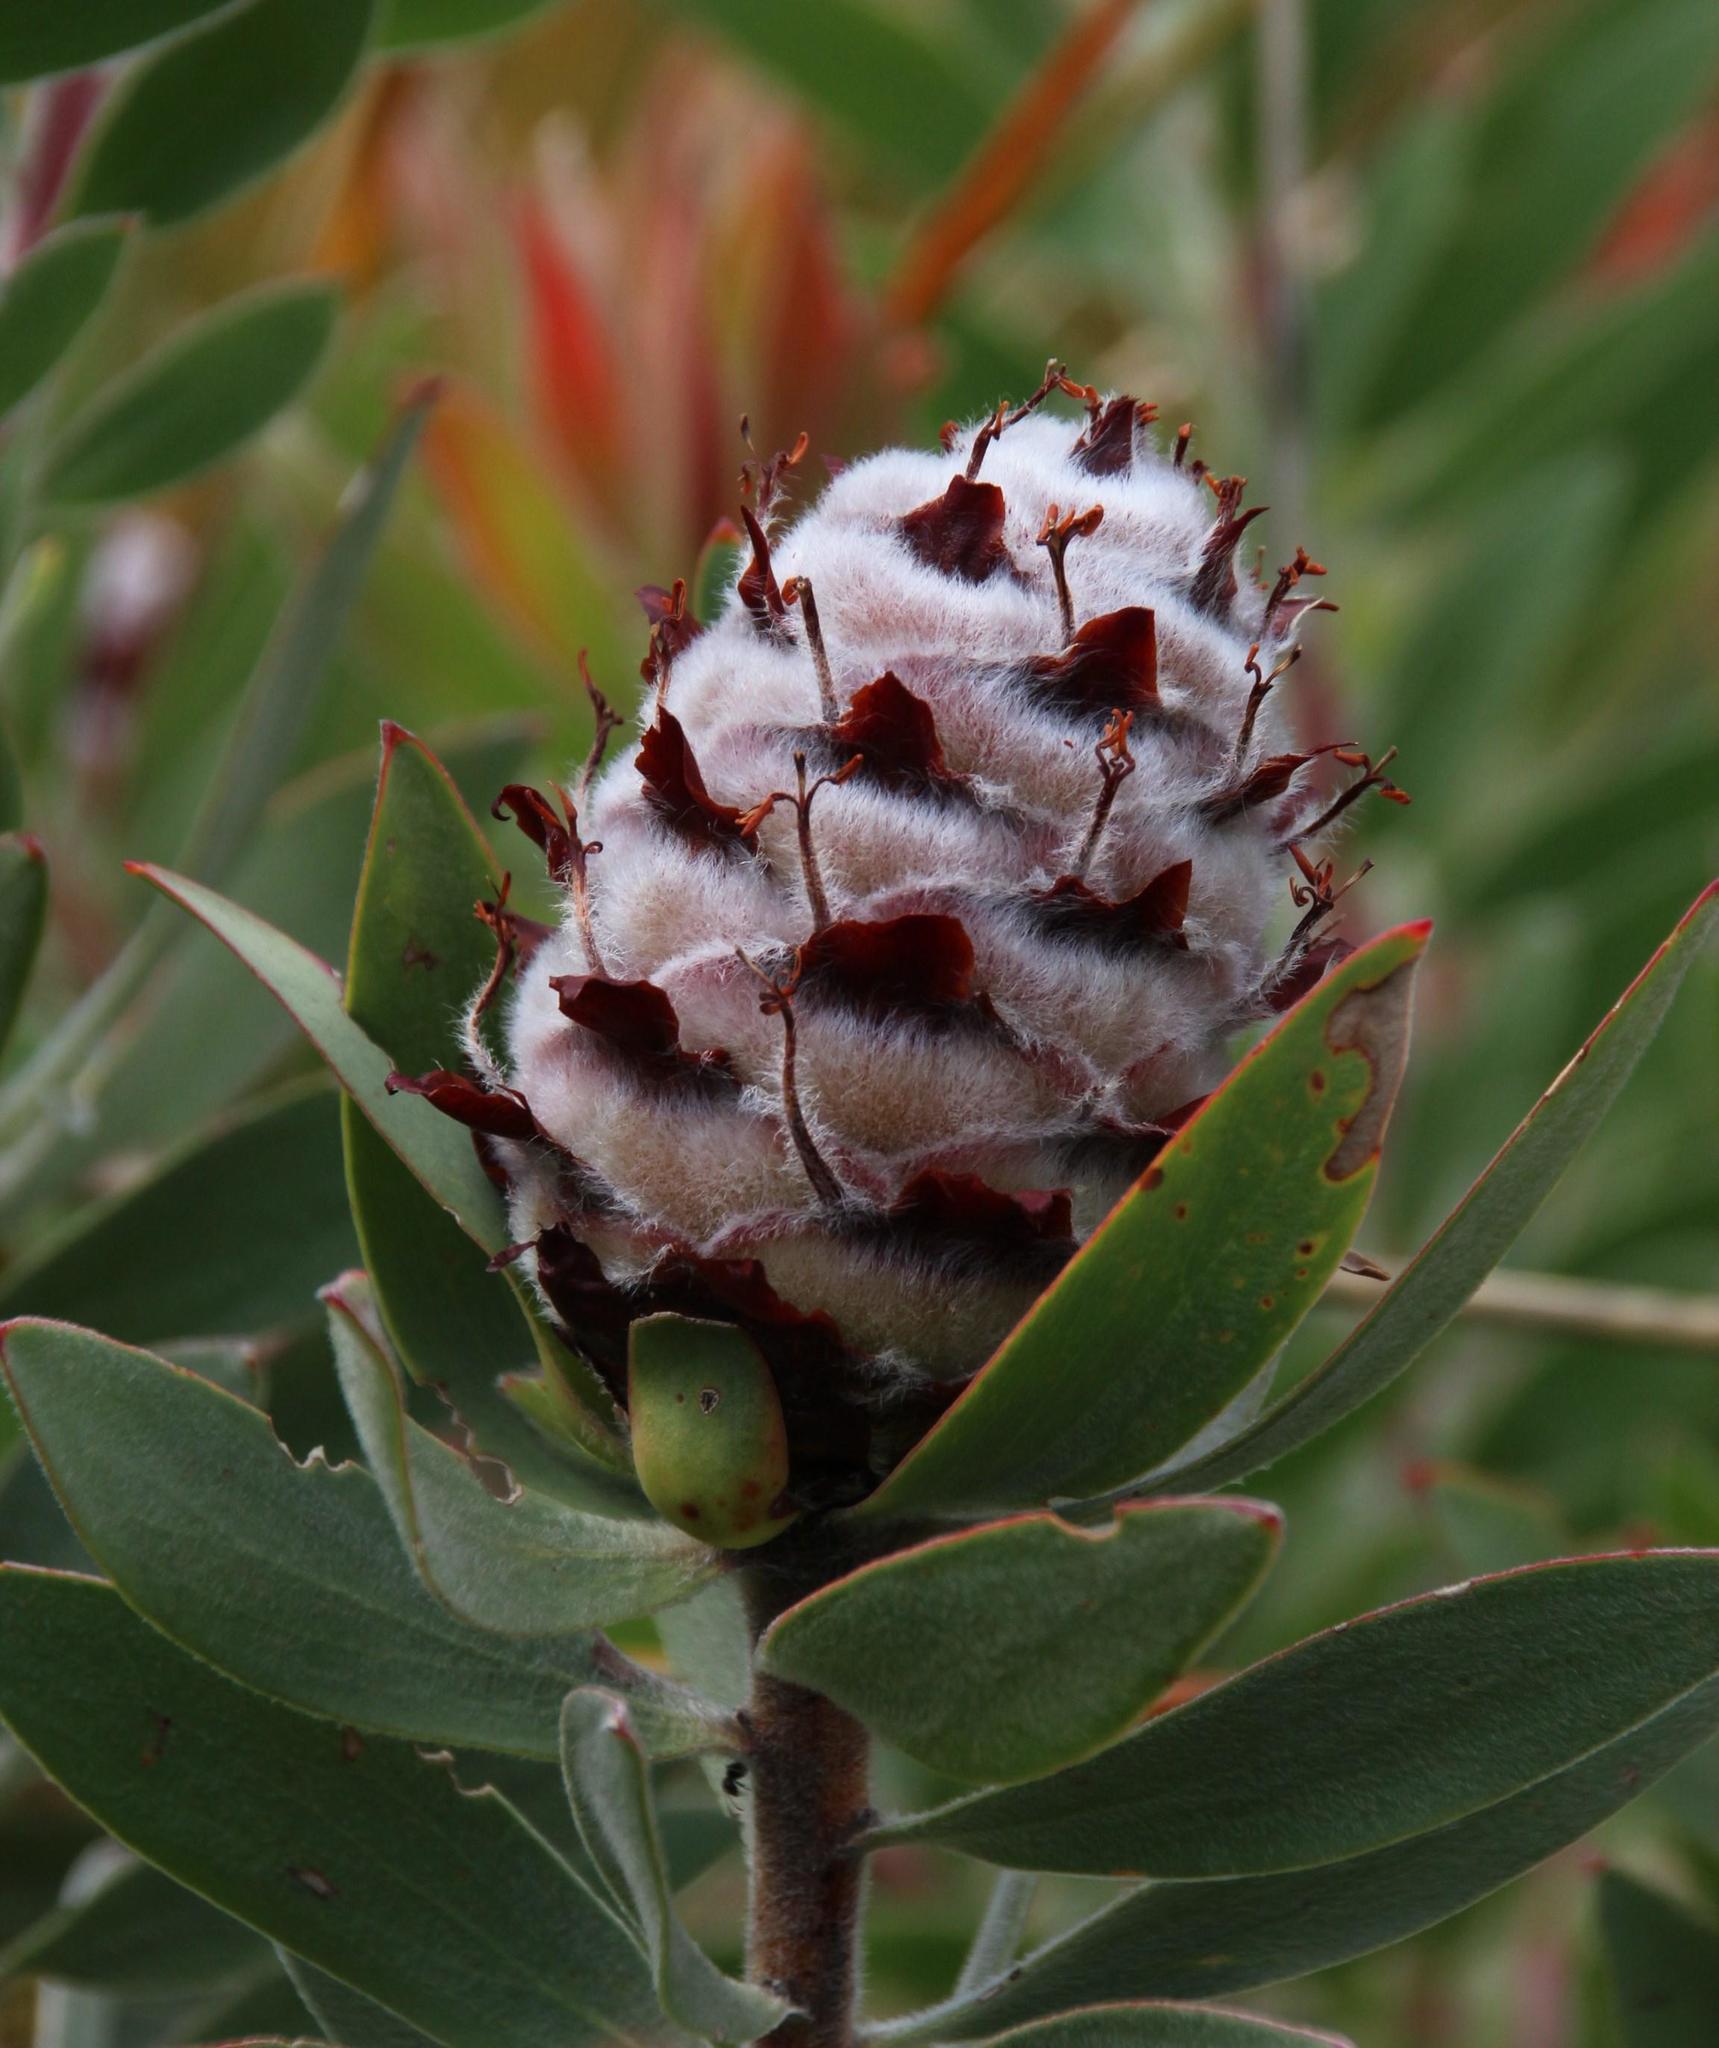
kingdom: Plantae
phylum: Tracheophyta
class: Magnoliopsida
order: Proteales
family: Proteaceae
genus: Leucadendron
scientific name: Leucadendron daphnoides
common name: Du toit's kloof conebush
